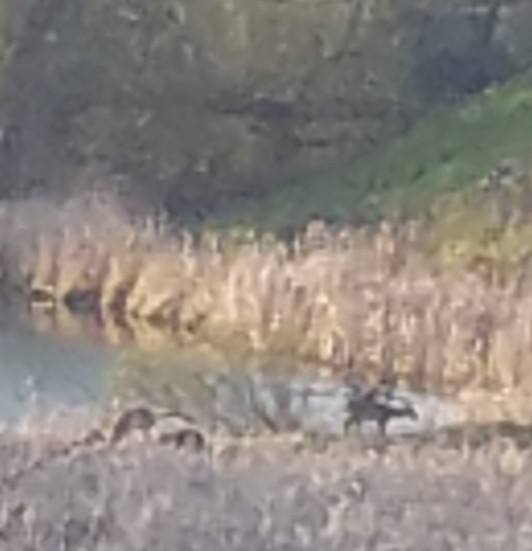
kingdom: Animalia
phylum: Chordata
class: Mammalia
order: Artiodactyla
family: Cervidae
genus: Odocoileus
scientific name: Odocoileus virginianus
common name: White-tailed deer
